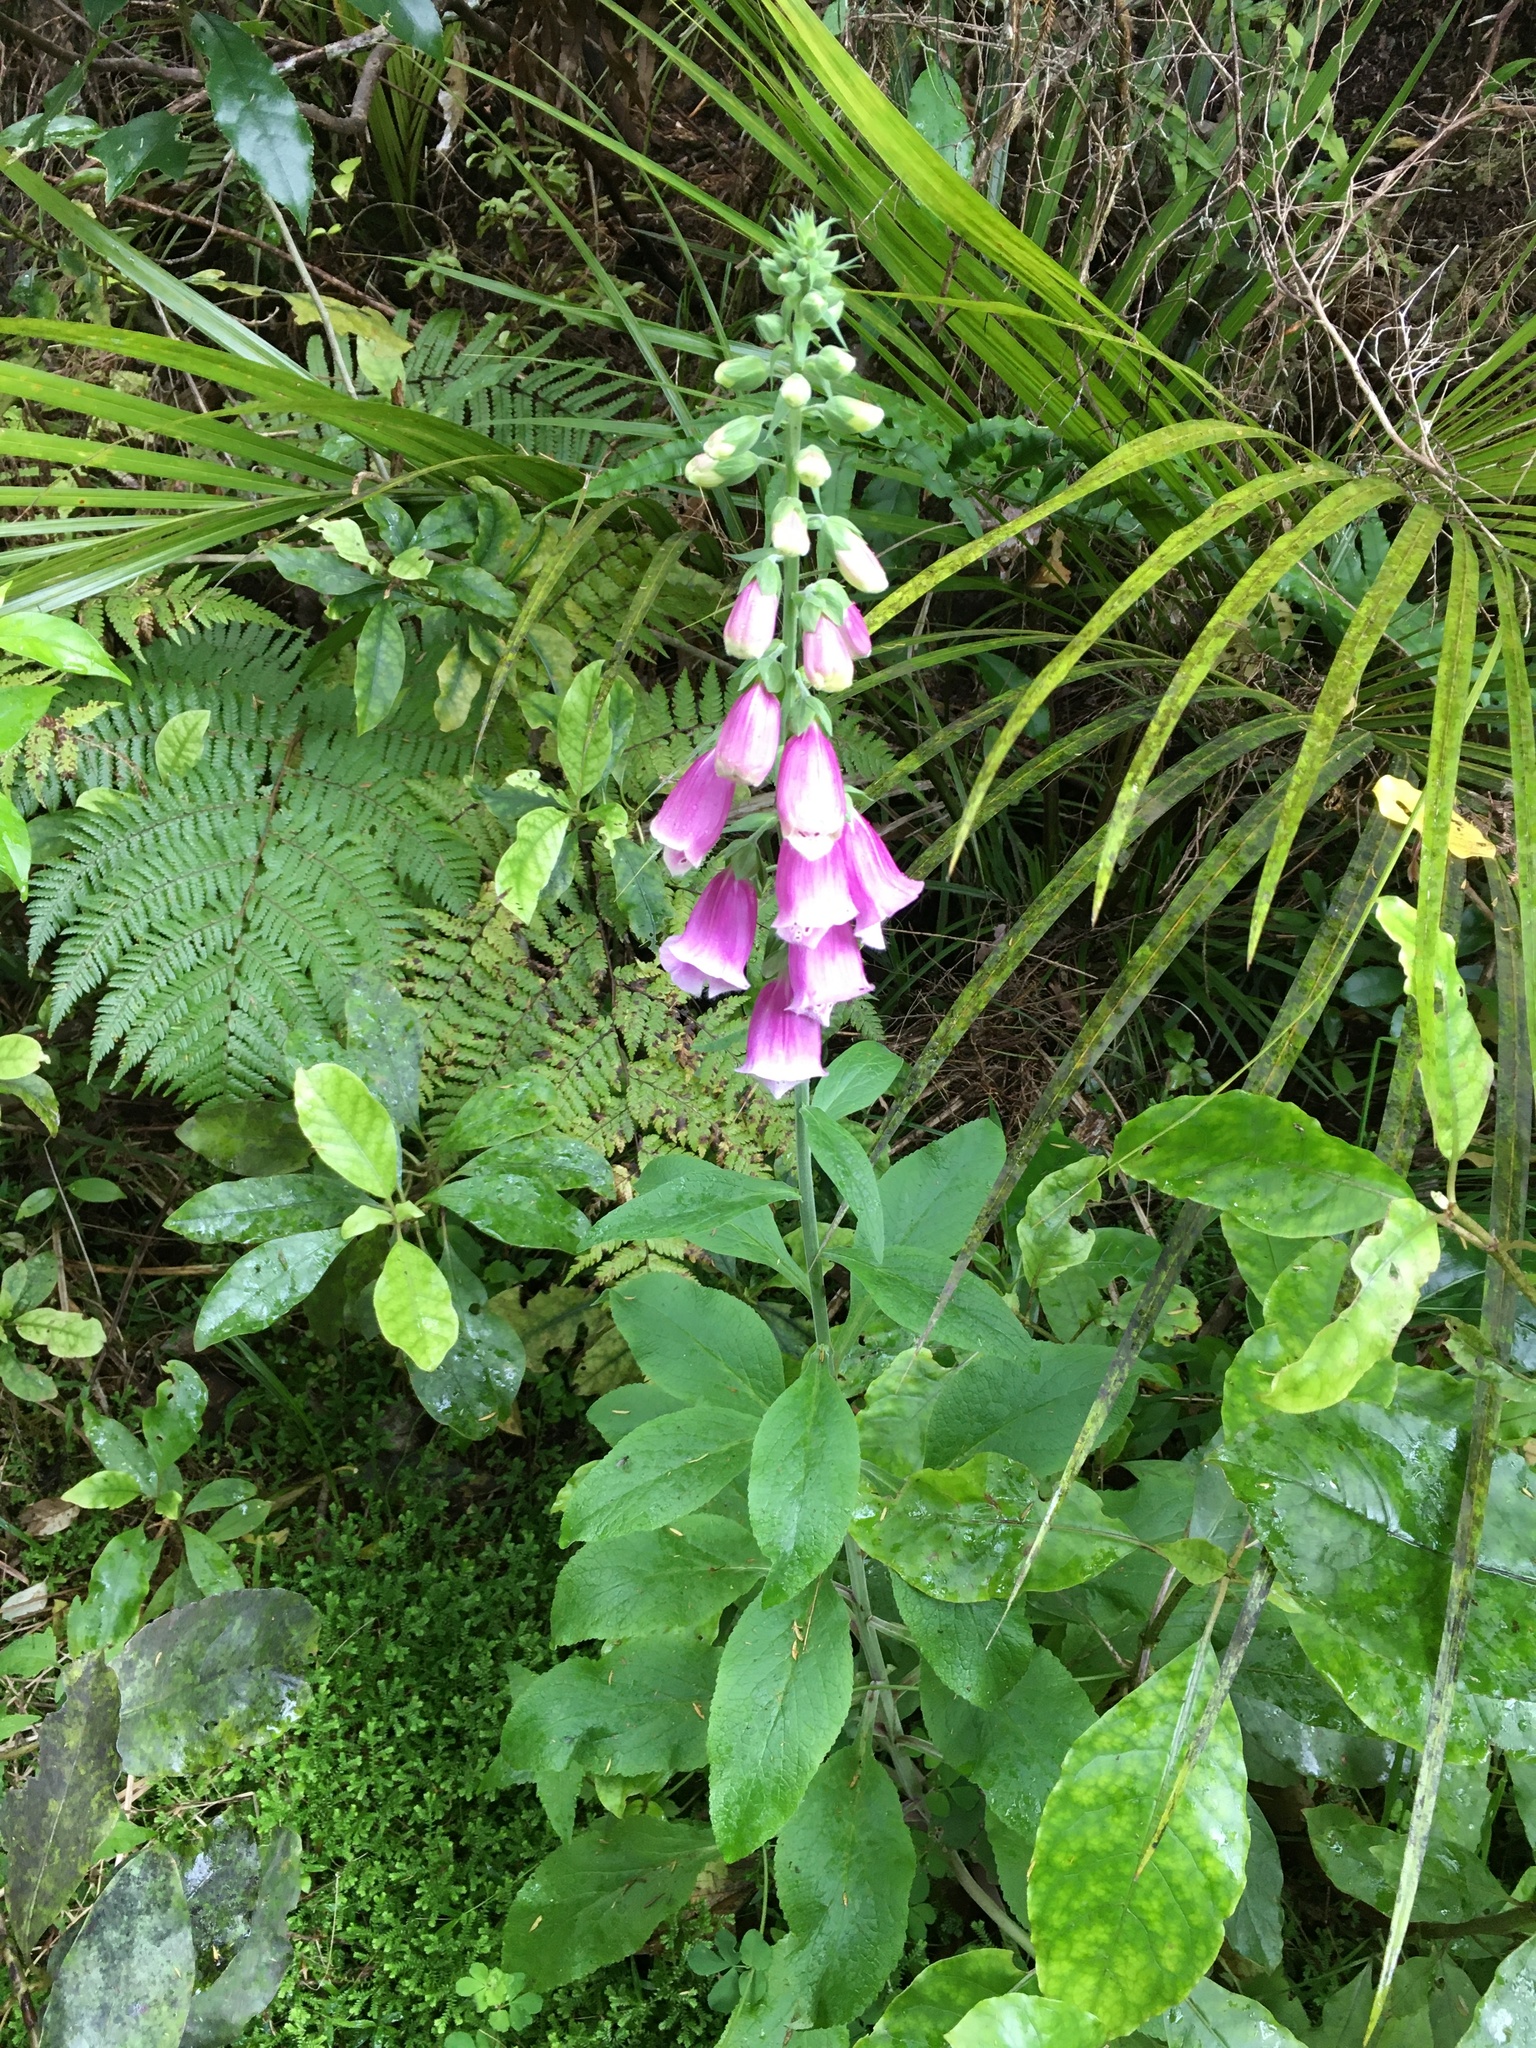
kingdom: Plantae
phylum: Tracheophyta
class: Magnoliopsida
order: Lamiales
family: Plantaginaceae
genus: Digitalis
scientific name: Digitalis purpurea
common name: Foxglove
